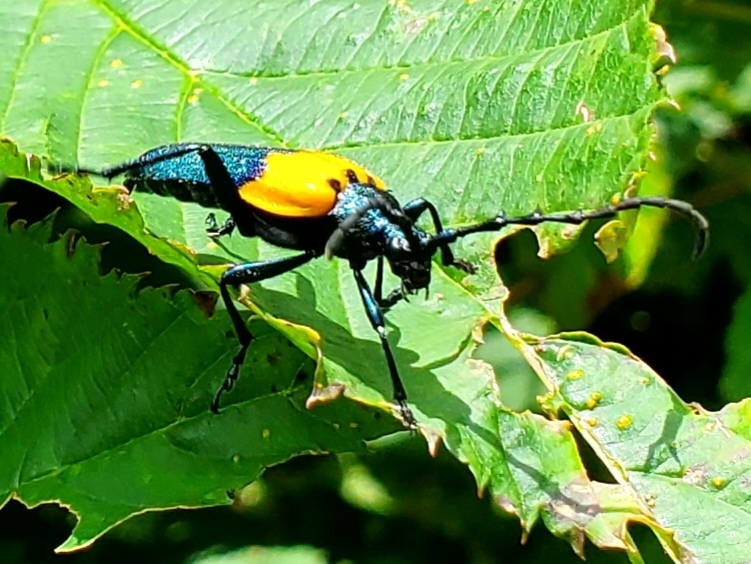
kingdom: Animalia
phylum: Arthropoda
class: Insecta
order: Coleoptera
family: Cerambycidae
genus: Desmocerus
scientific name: Desmocerus palliatus
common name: Eastern elderberry borer
